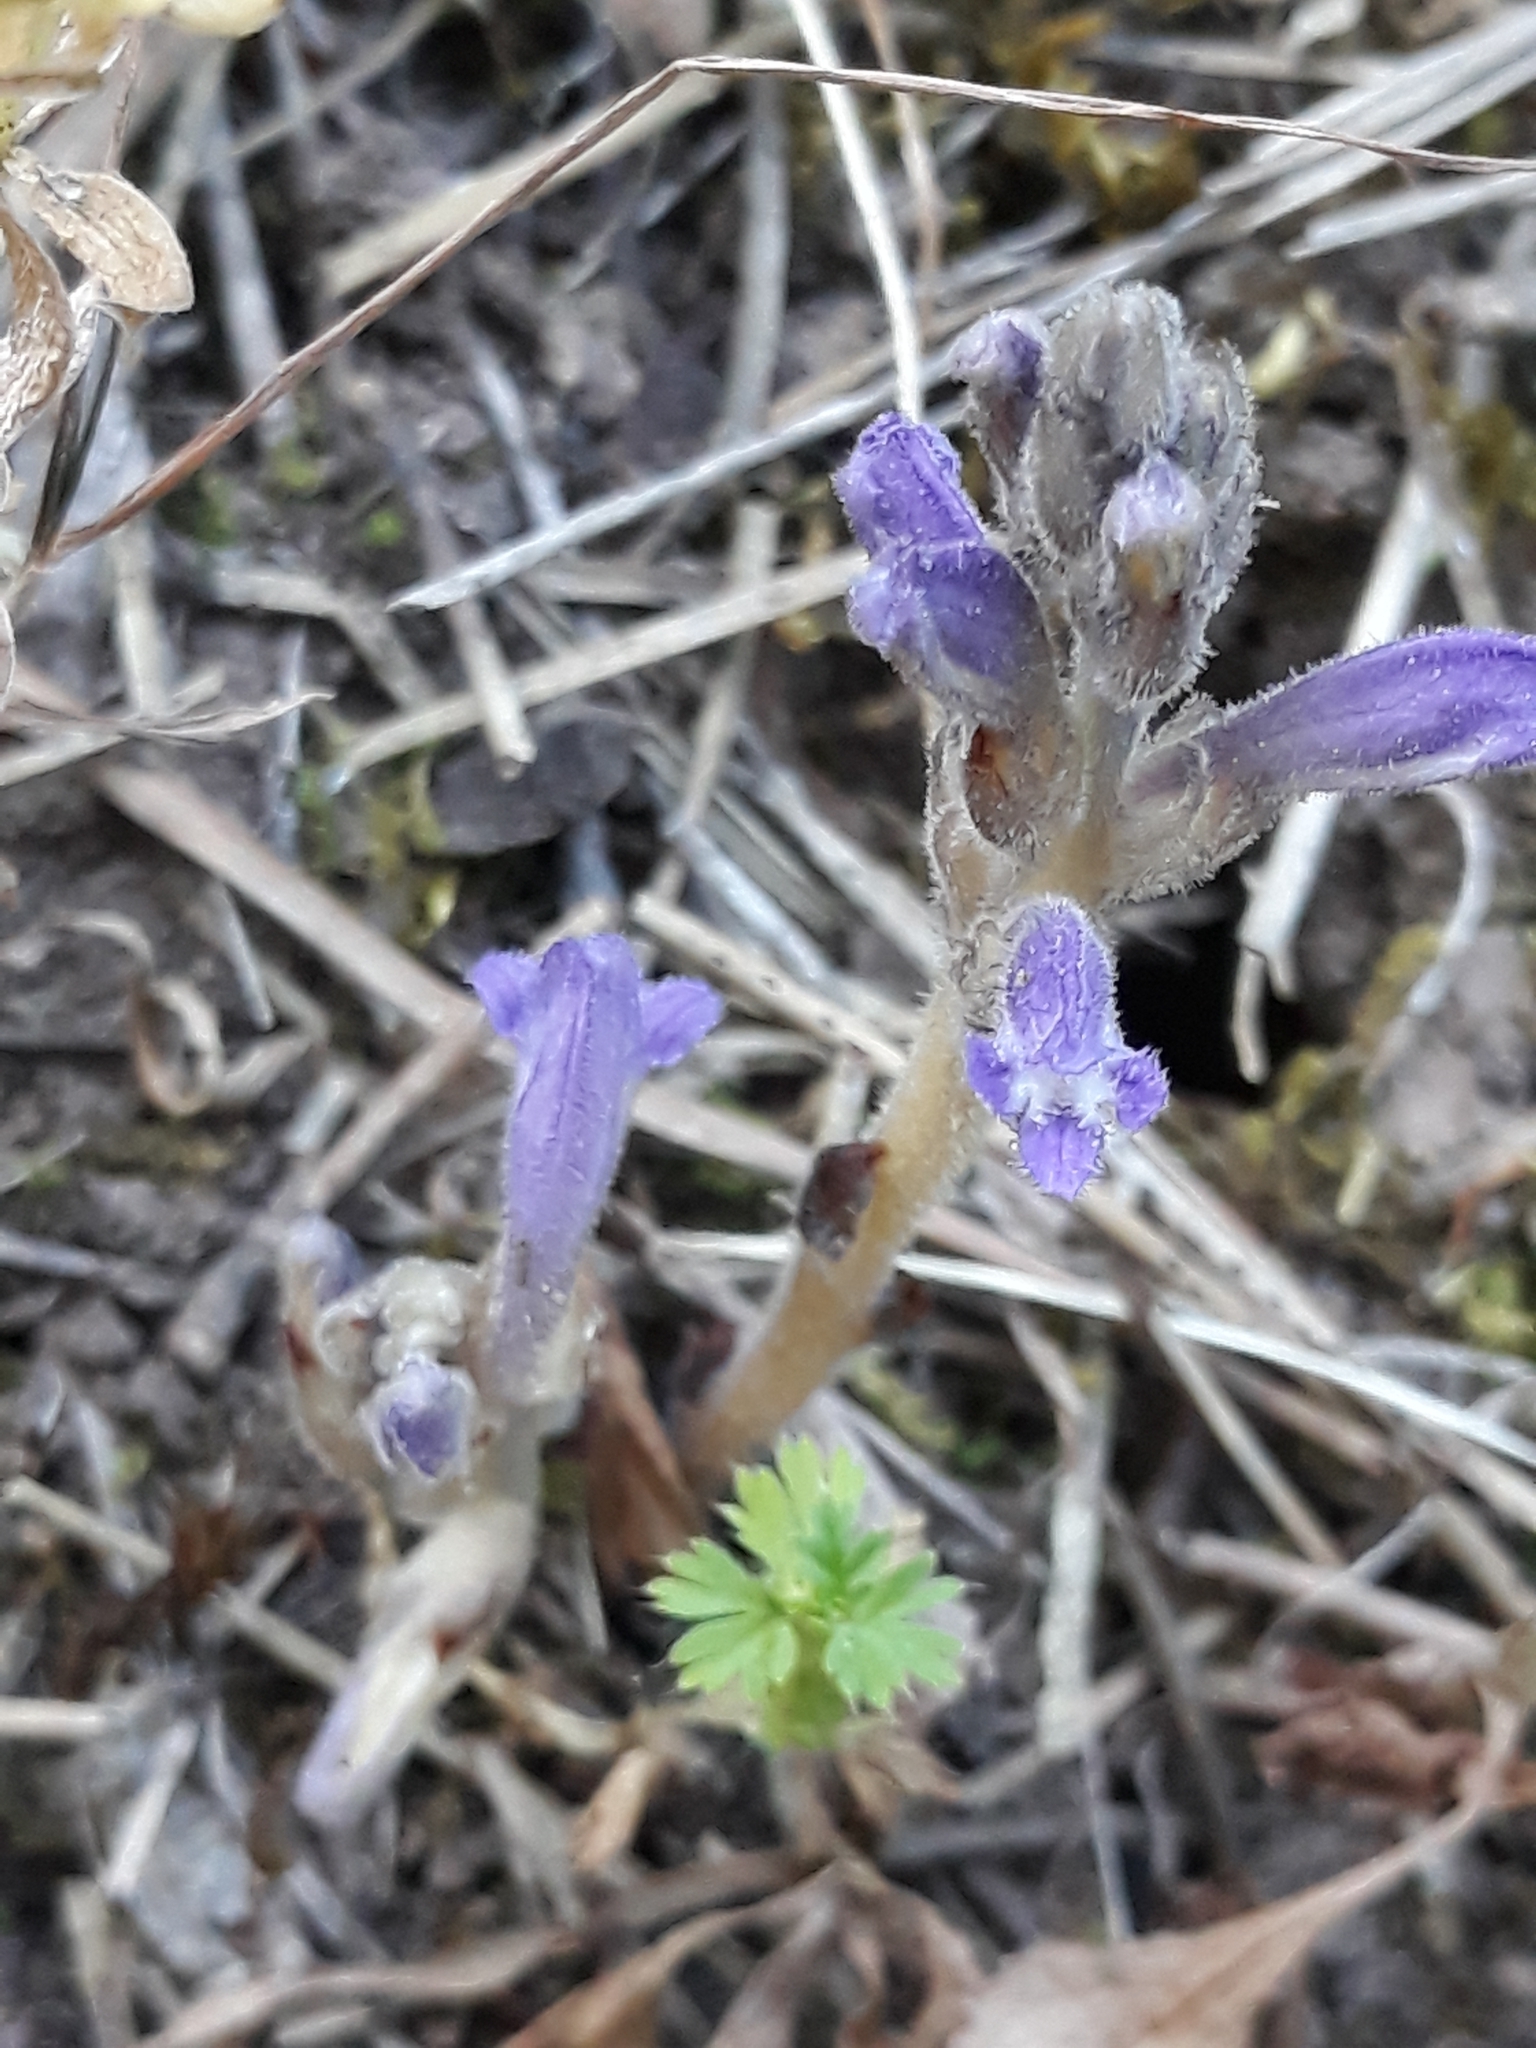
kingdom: Plantae
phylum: Tracheophyta
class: Magnoliopsida
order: Lamiales
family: Orobanchaceae
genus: Phelipanche
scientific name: Phelipanche mutelii
